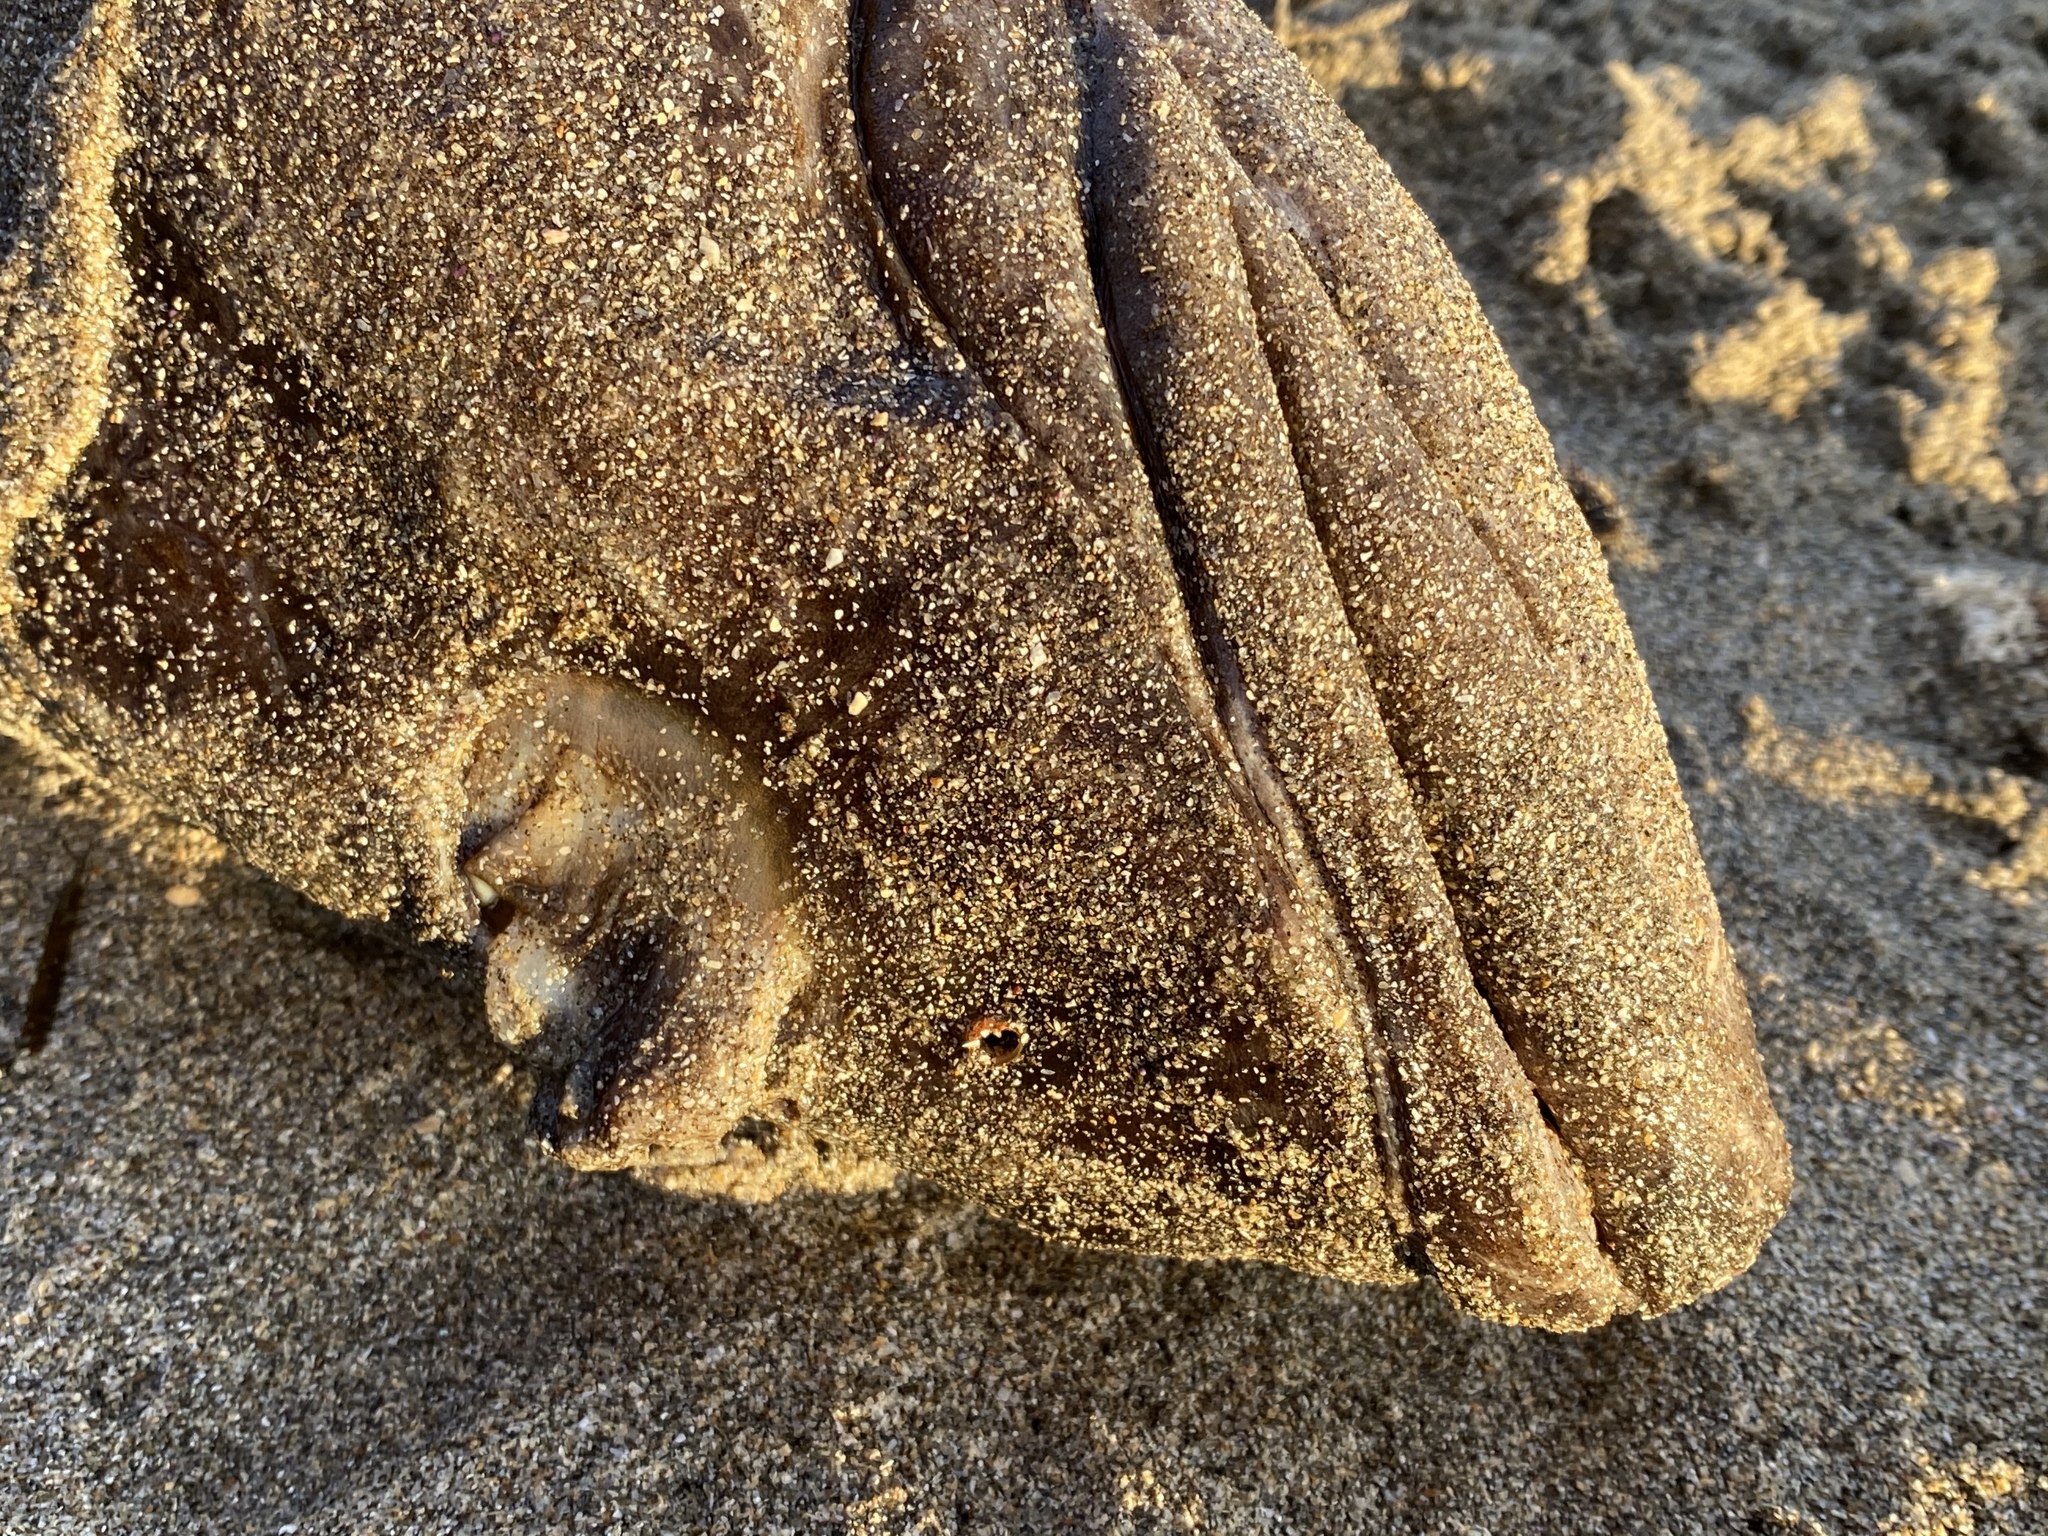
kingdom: Animalia
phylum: Chordata
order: Scorpaeniformes
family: Hexagrammidae
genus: Ophiodon
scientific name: Ophiodon elongatus
